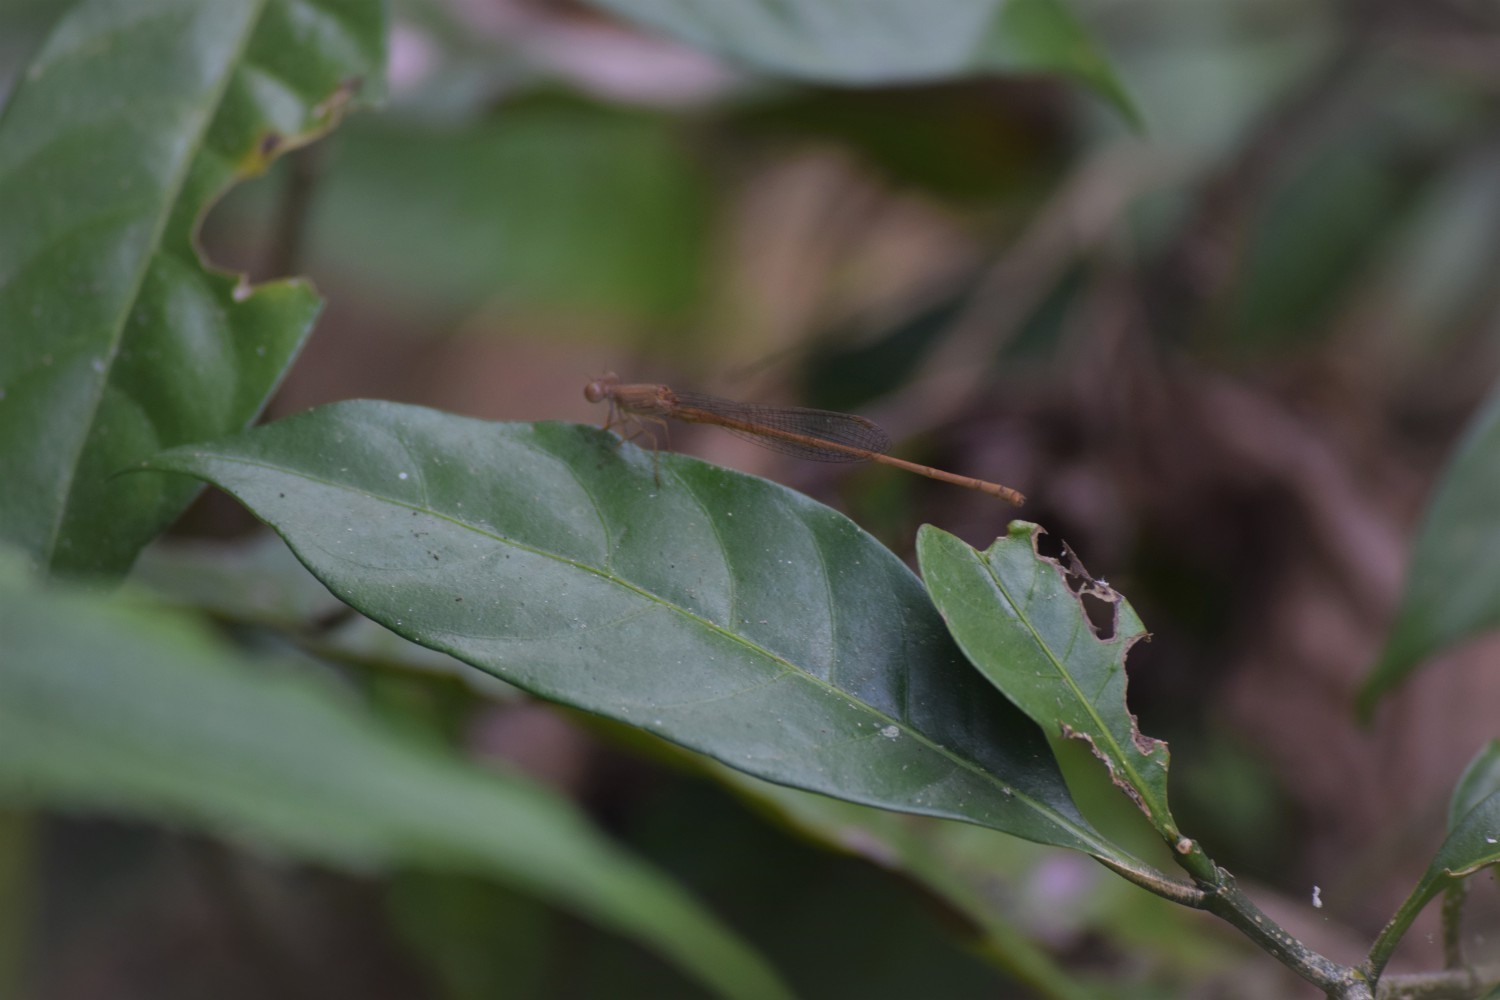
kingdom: Animalia
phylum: Arthropoda
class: Insecta
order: Odonata
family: Coenagrionidae
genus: Ceriagrion
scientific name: Ceriagrion olivaceum
